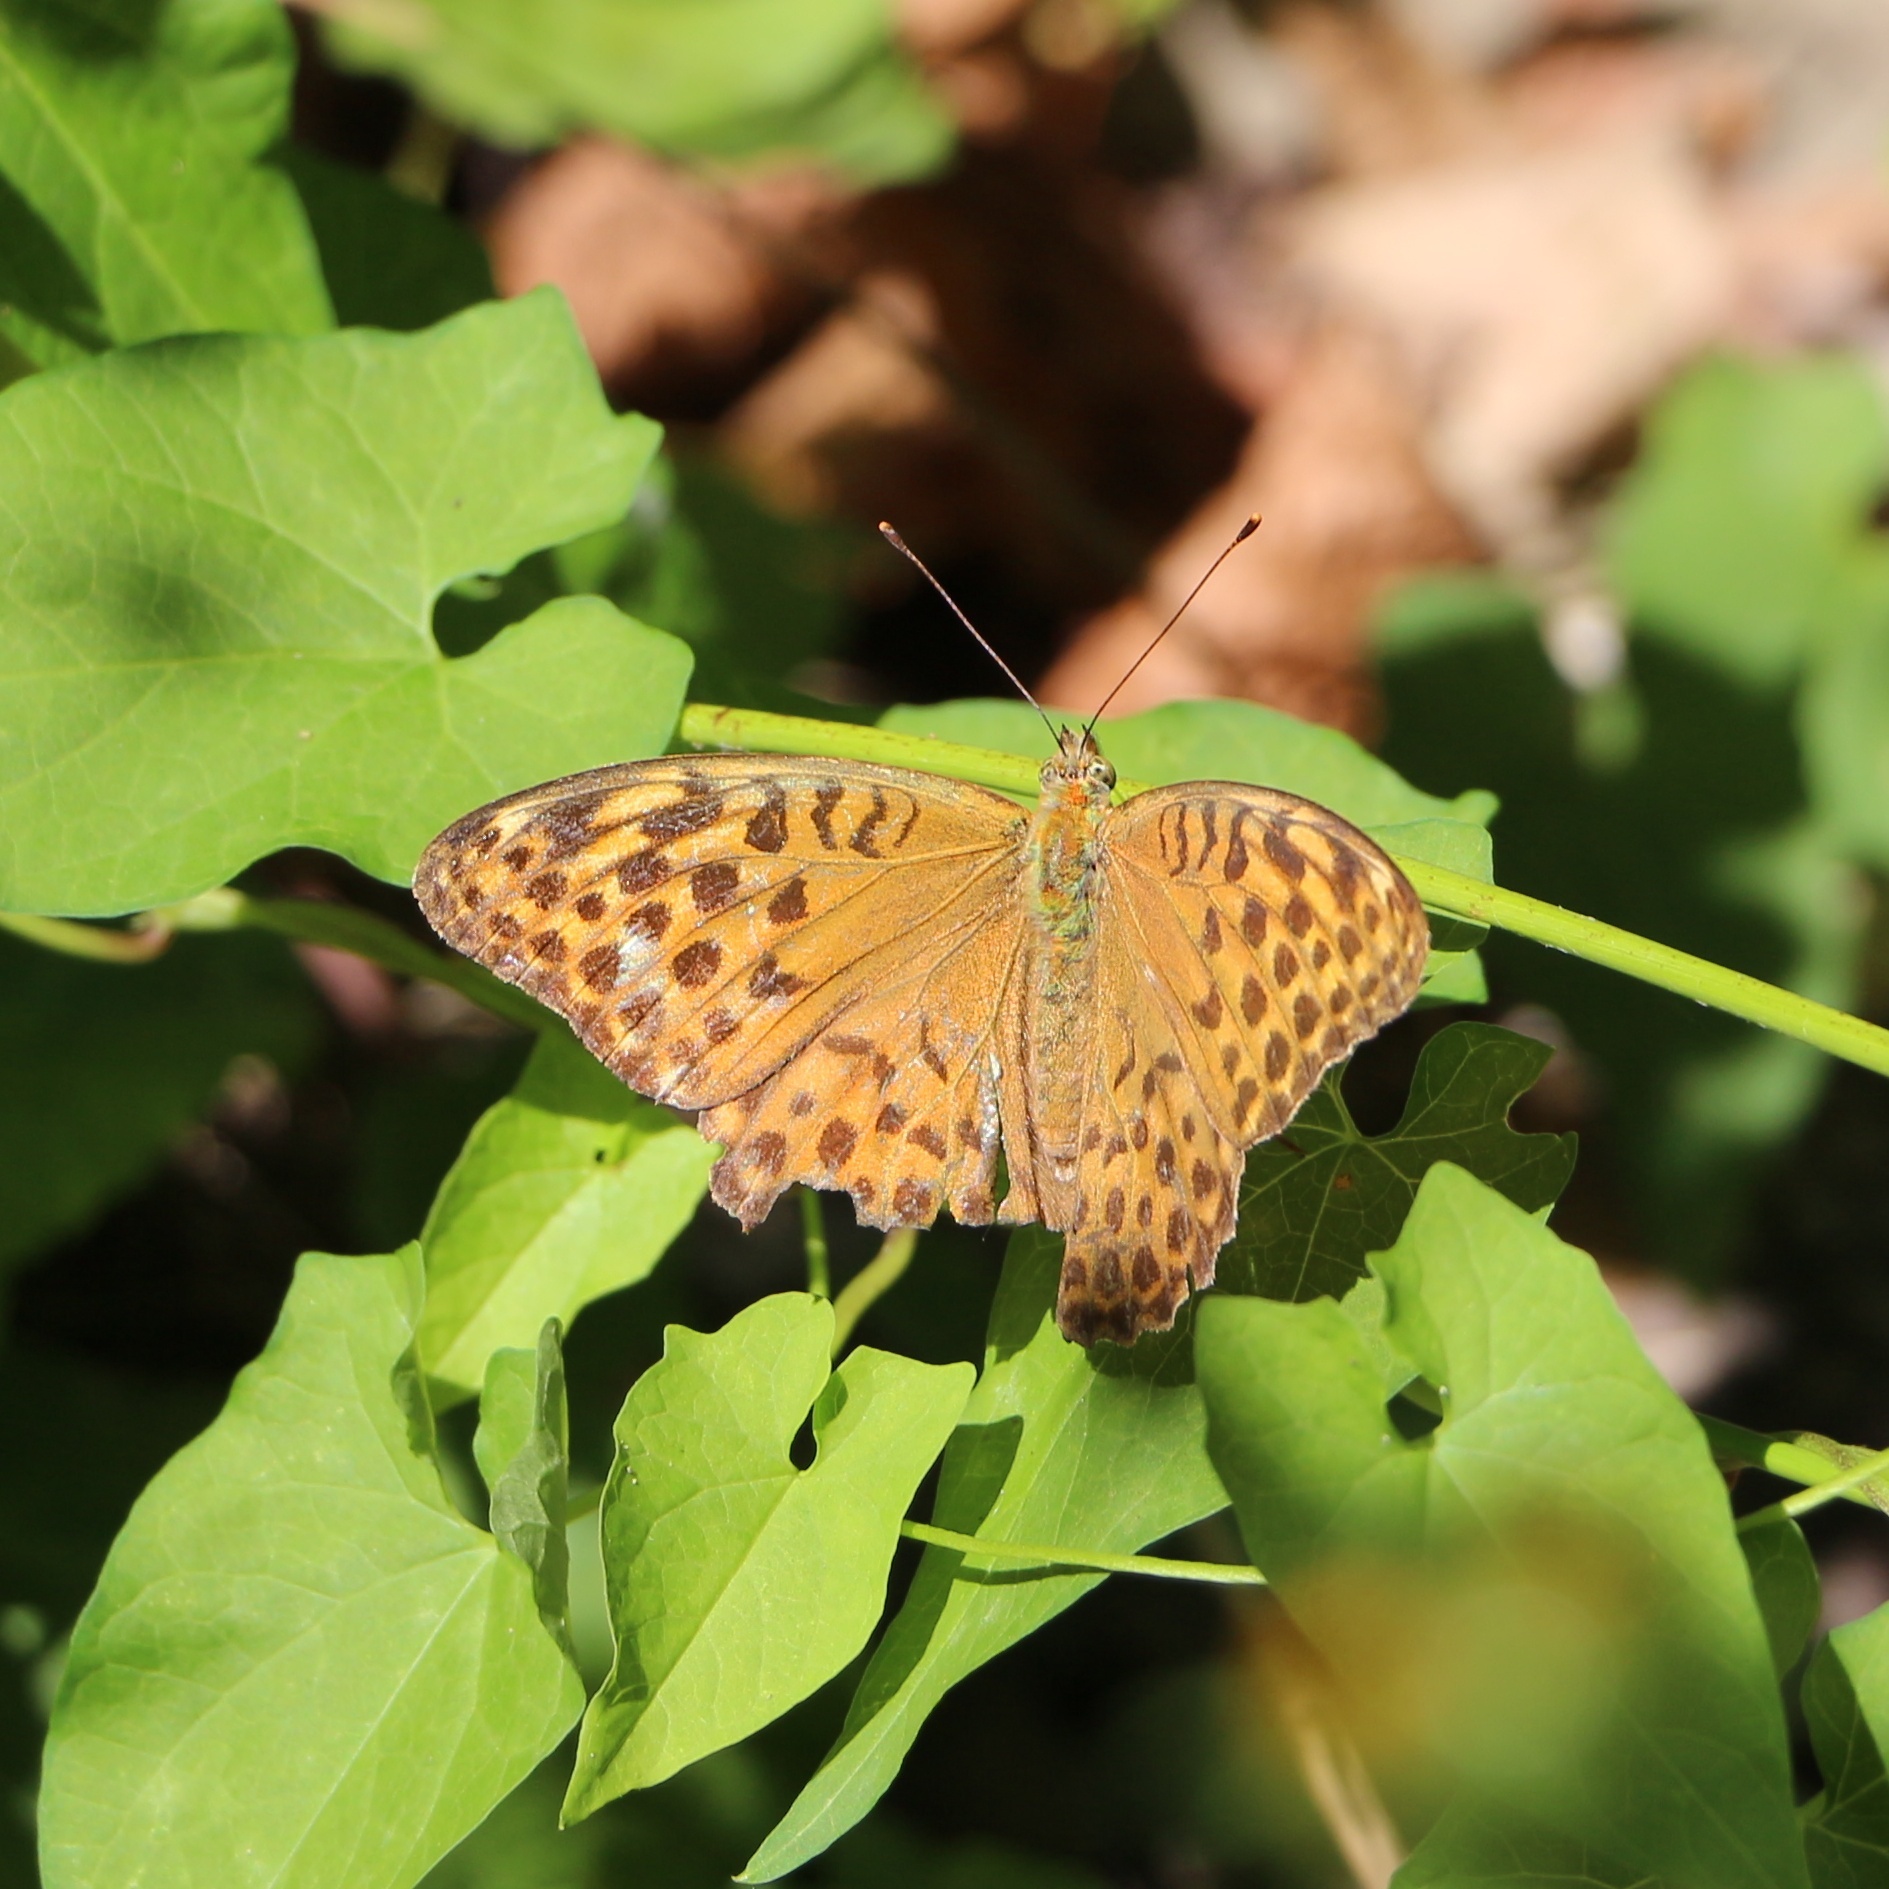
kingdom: Animalia
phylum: Arthropoda
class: Insecta
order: Lepidoptera
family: Nymphalidae
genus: Argynnis
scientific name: Argynnis paphia
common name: Silver-washed fritillary
